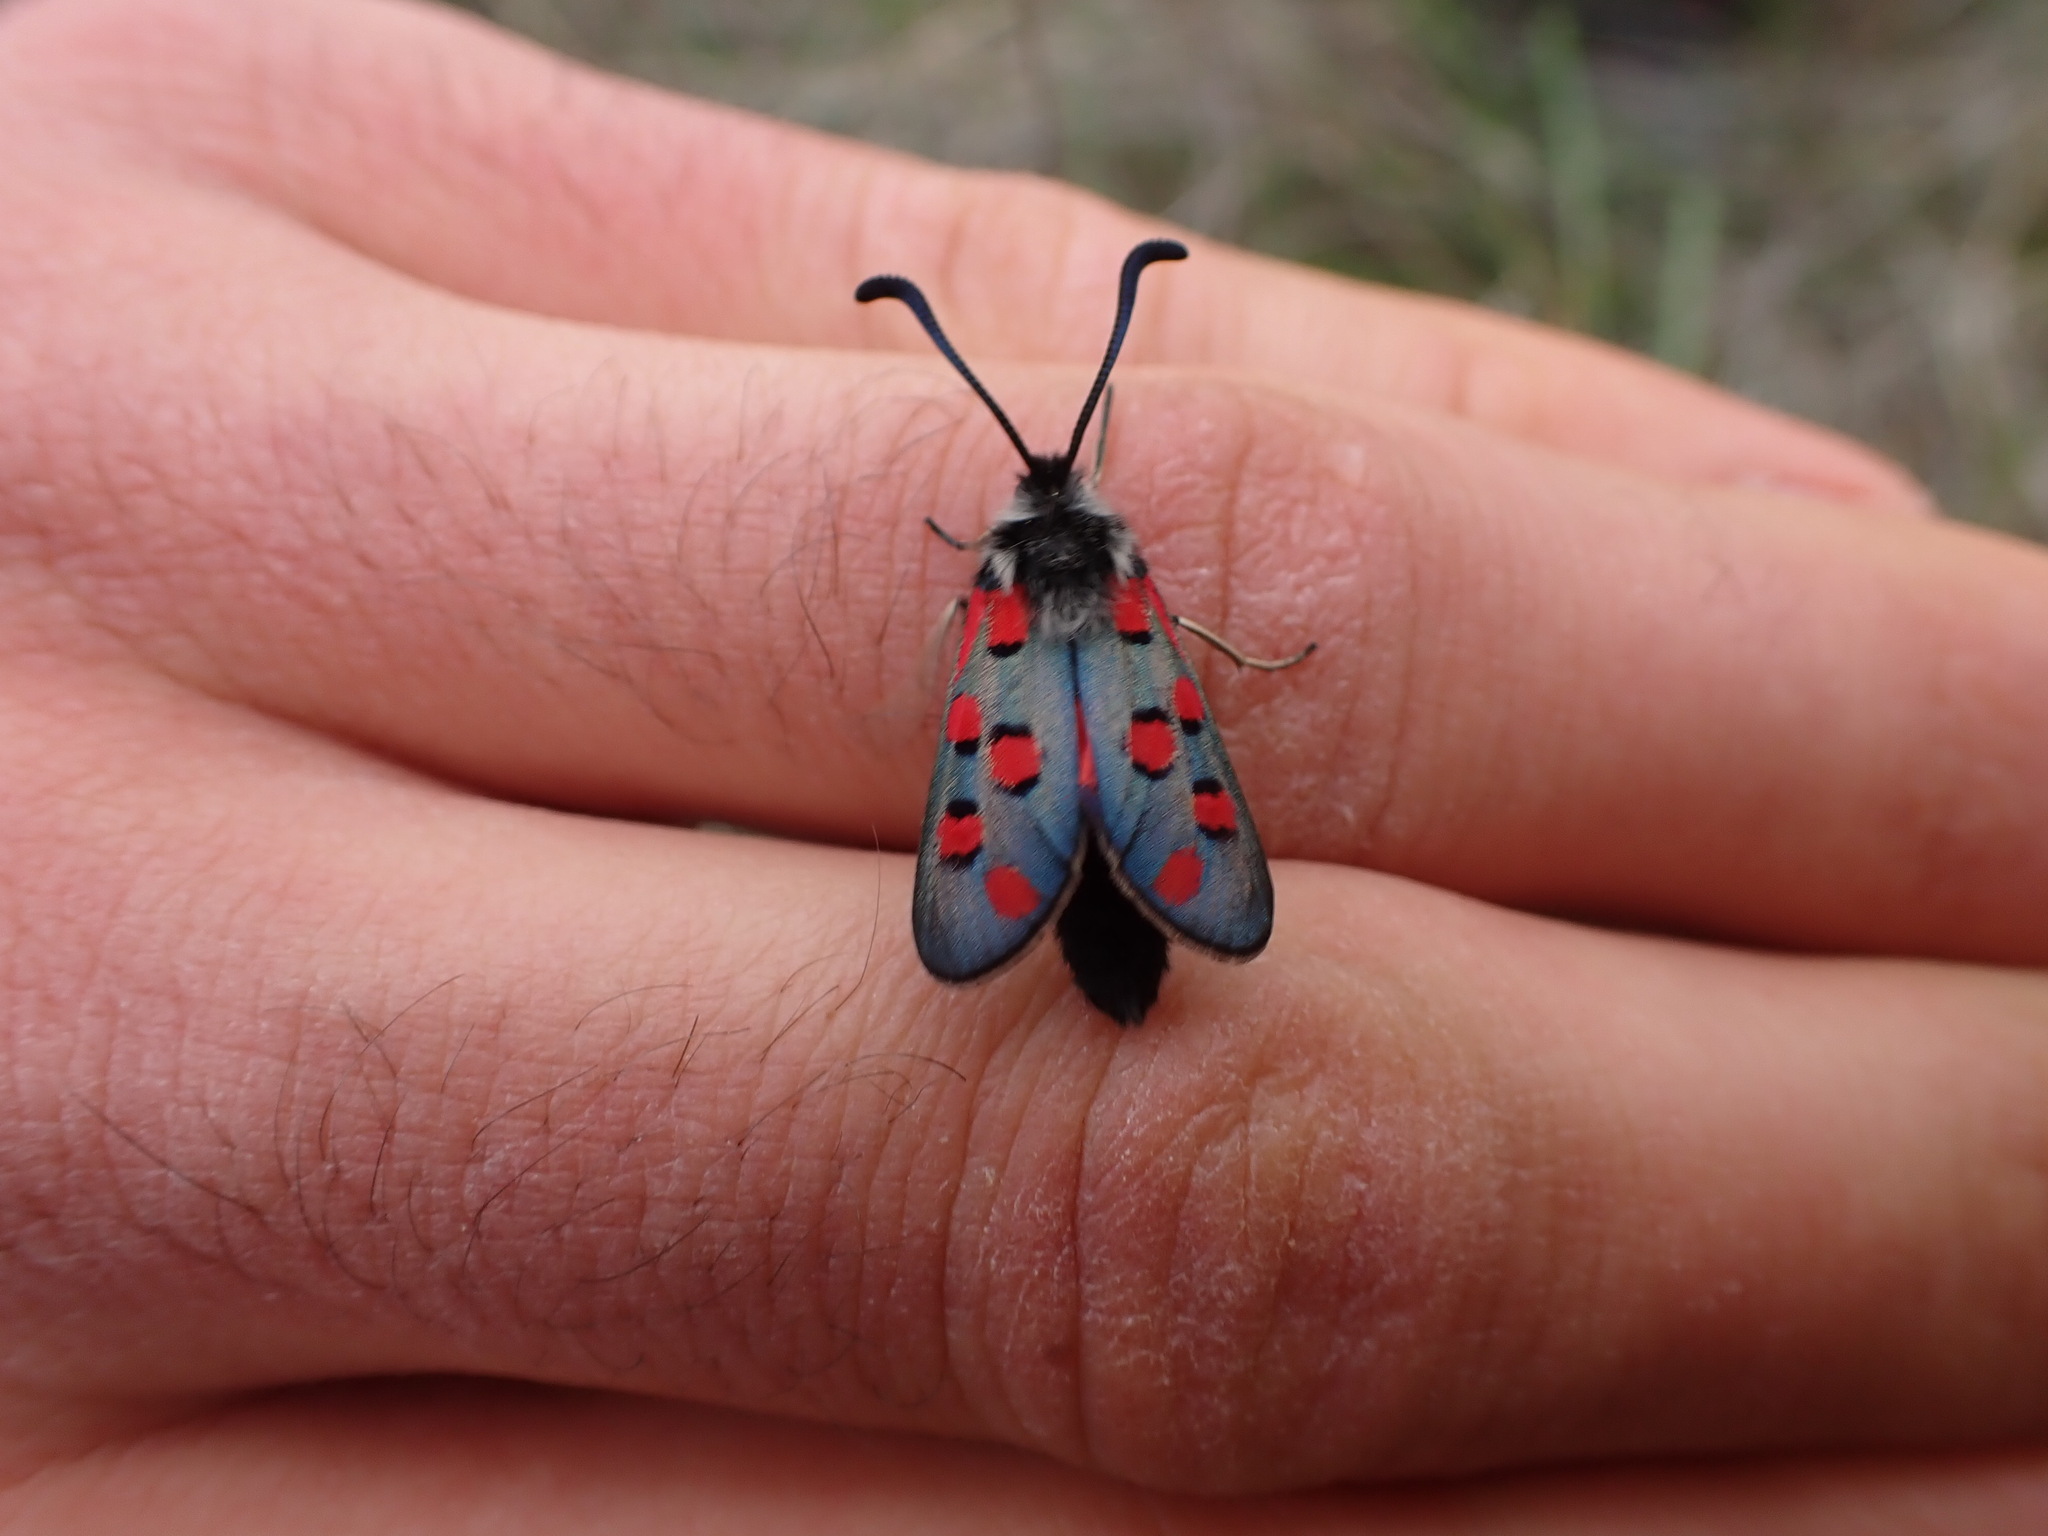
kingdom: Animalia
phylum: Arthropoda
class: Insecta
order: Lepidoptera
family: Zygaenidae
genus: Zygaena
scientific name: Zygaena rhadamanthus
